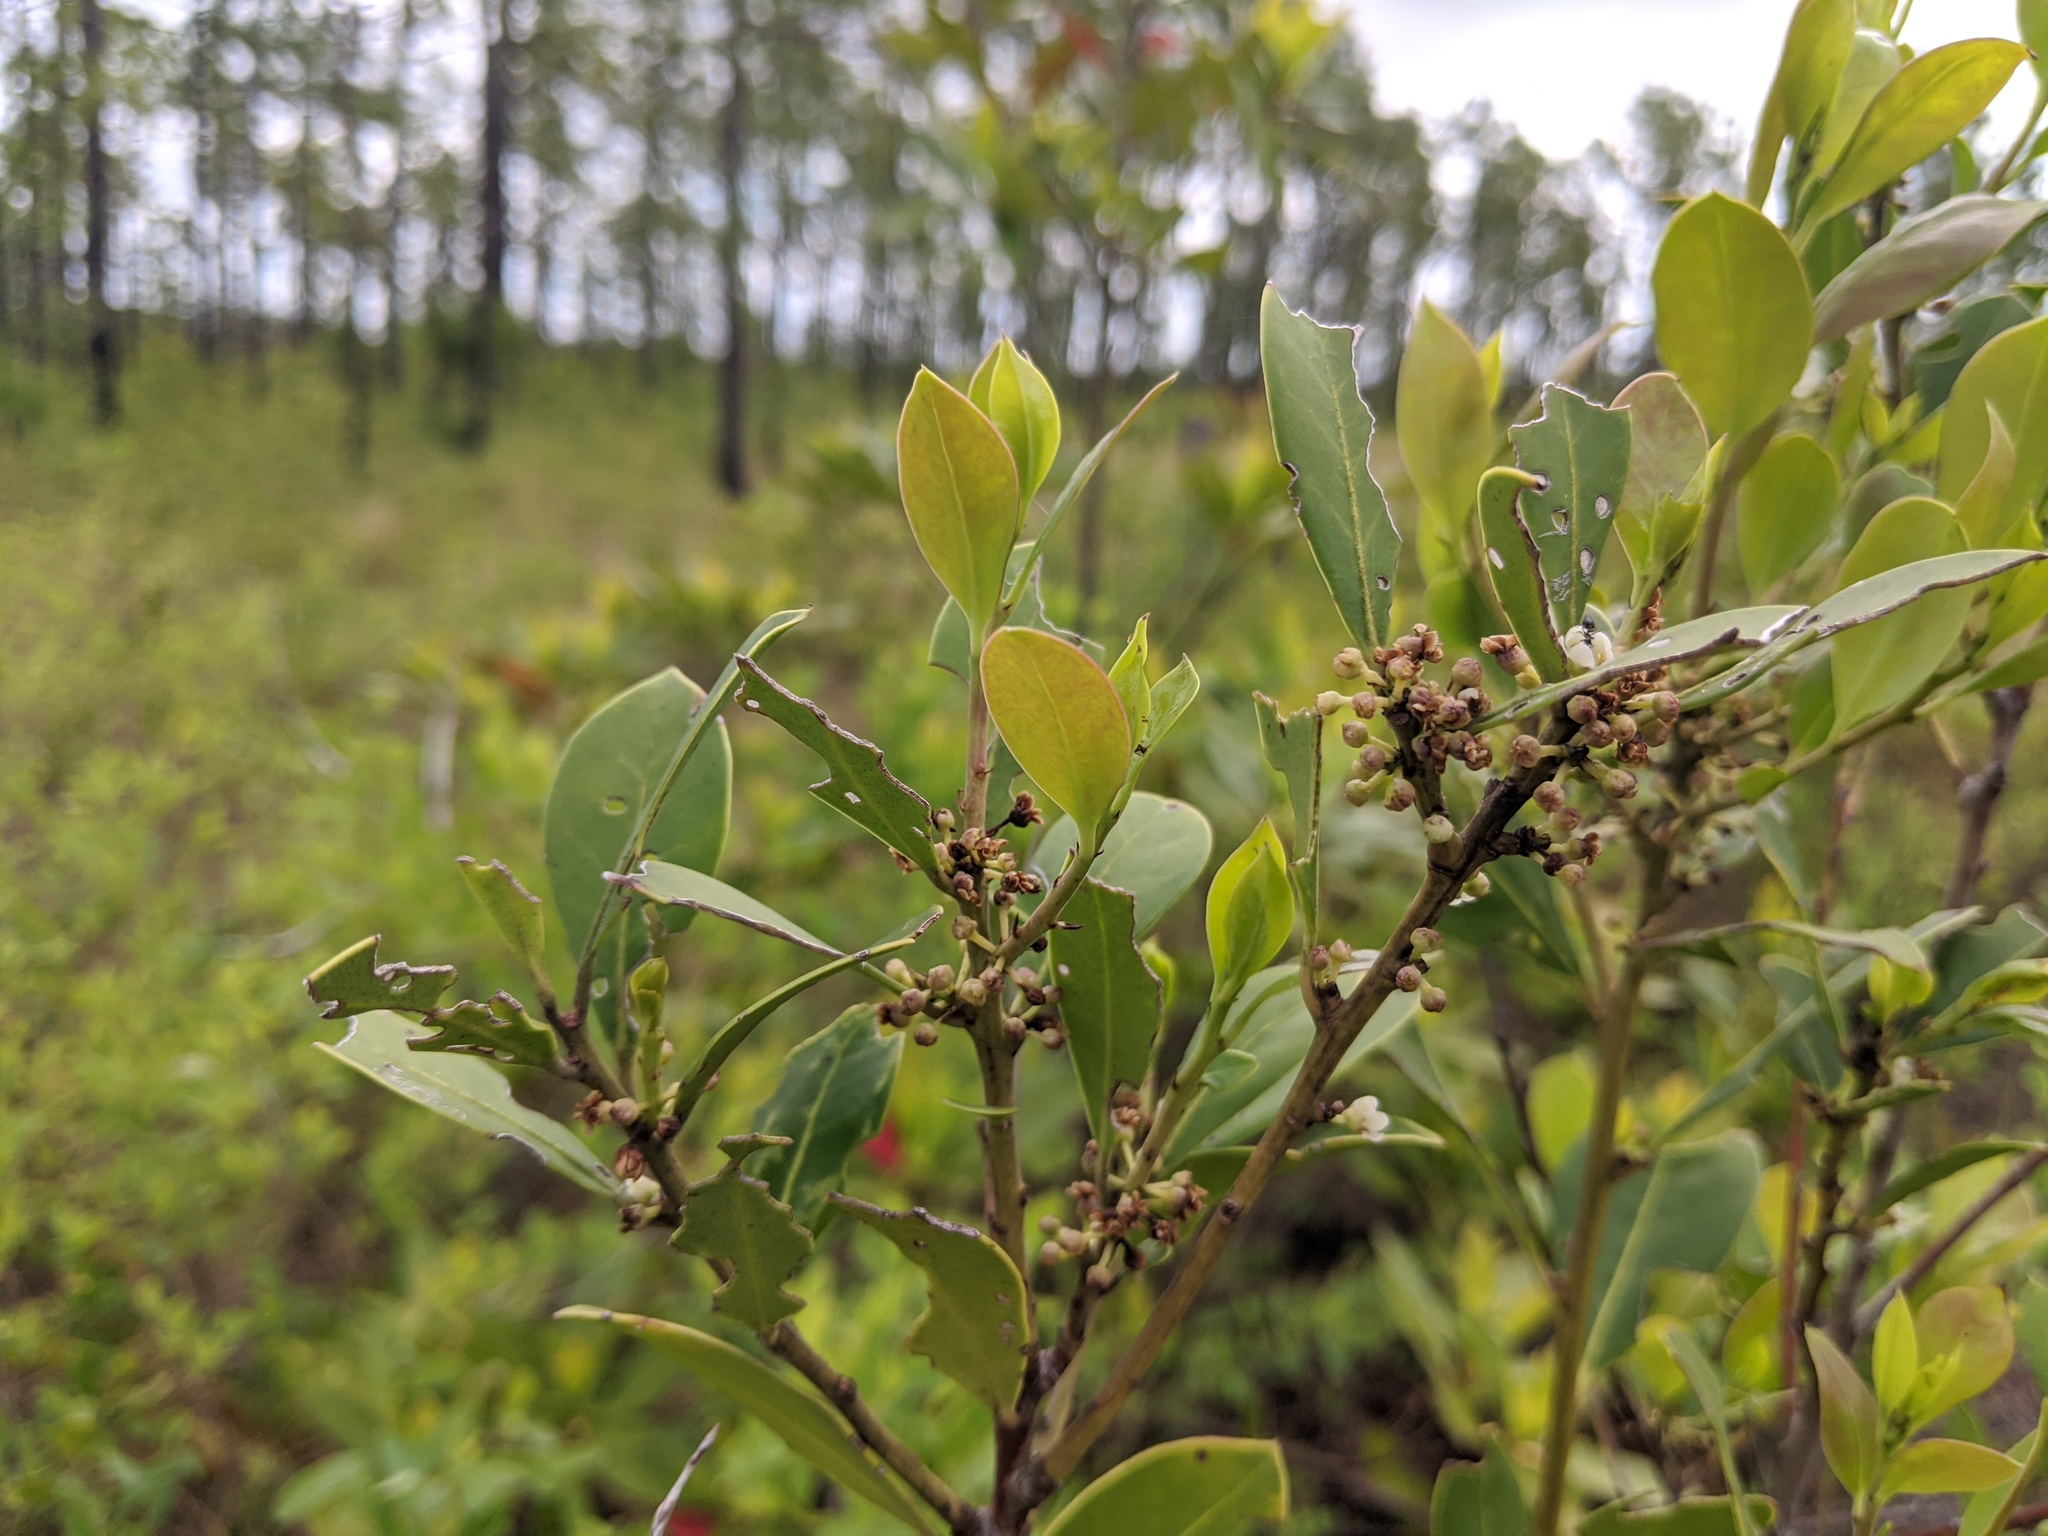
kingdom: Plantae
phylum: Tracheophyta
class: Magnoliopsida
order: Aquifoliales
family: Aquifoliaceae
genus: Ilex
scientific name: Ilex coriacea
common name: Sweet gallberry
